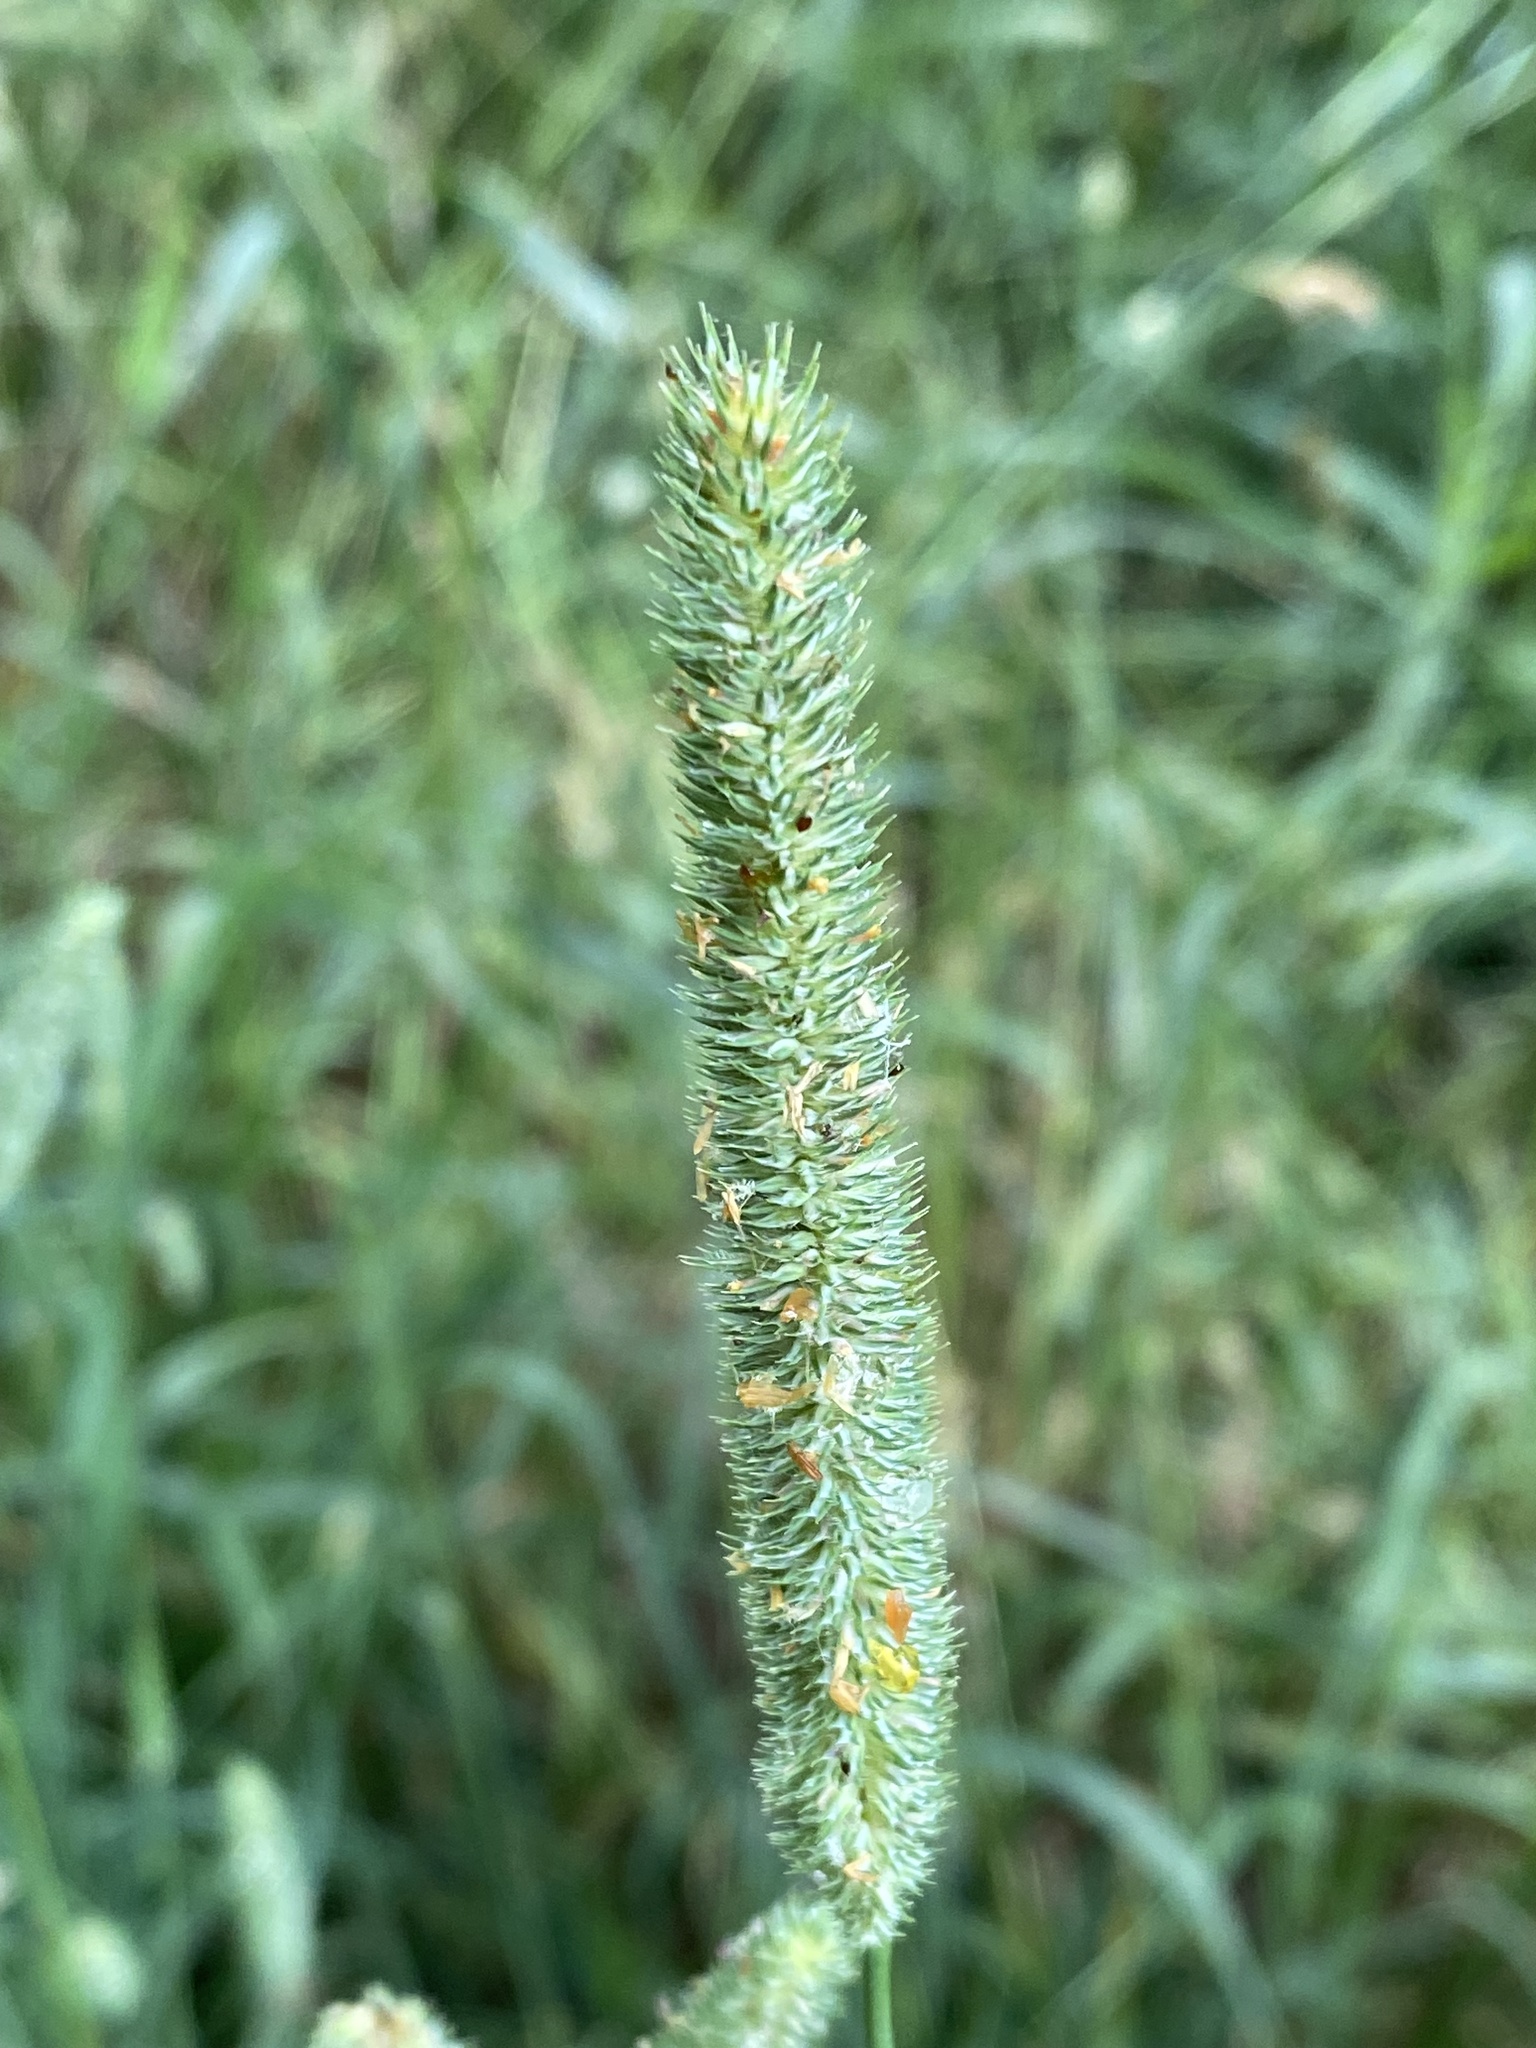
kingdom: Plantae
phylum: Tracheophyta
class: Liliopsida
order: Poales
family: Poaceae
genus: Phleum
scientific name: Phleum pratense
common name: Timothy grass
